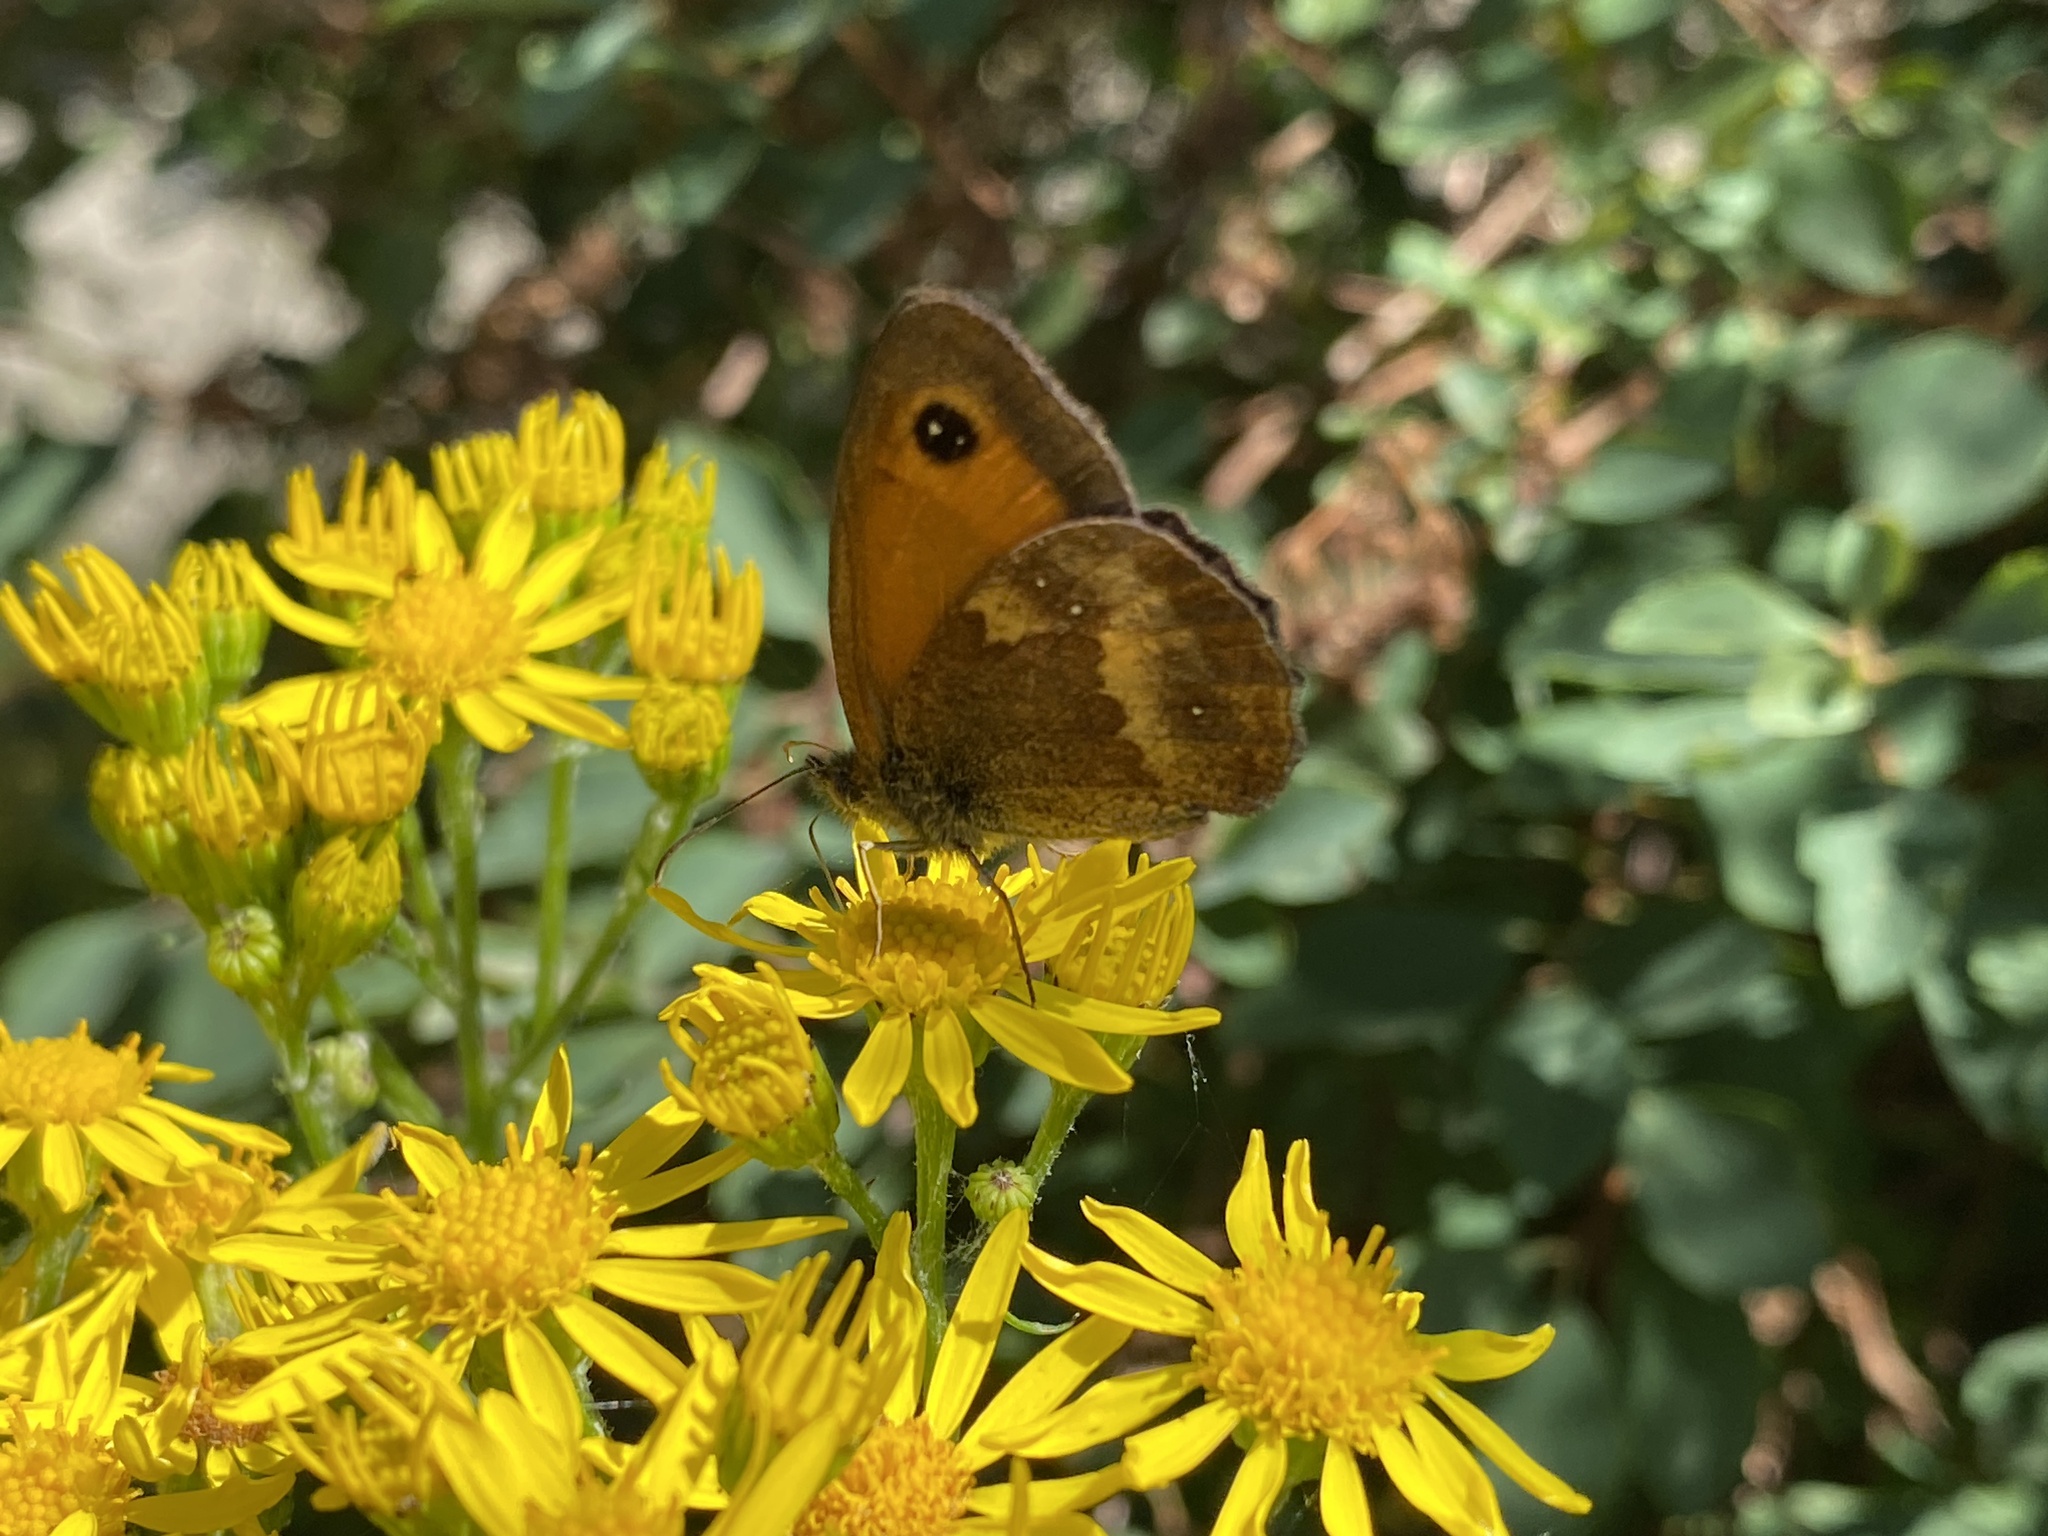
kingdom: Animalia
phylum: Arthropoda
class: Insecta
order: Lepidoptera
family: Nymphalidae
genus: Pyronia
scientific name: Pyronia tithonus
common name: Gatekeeper
